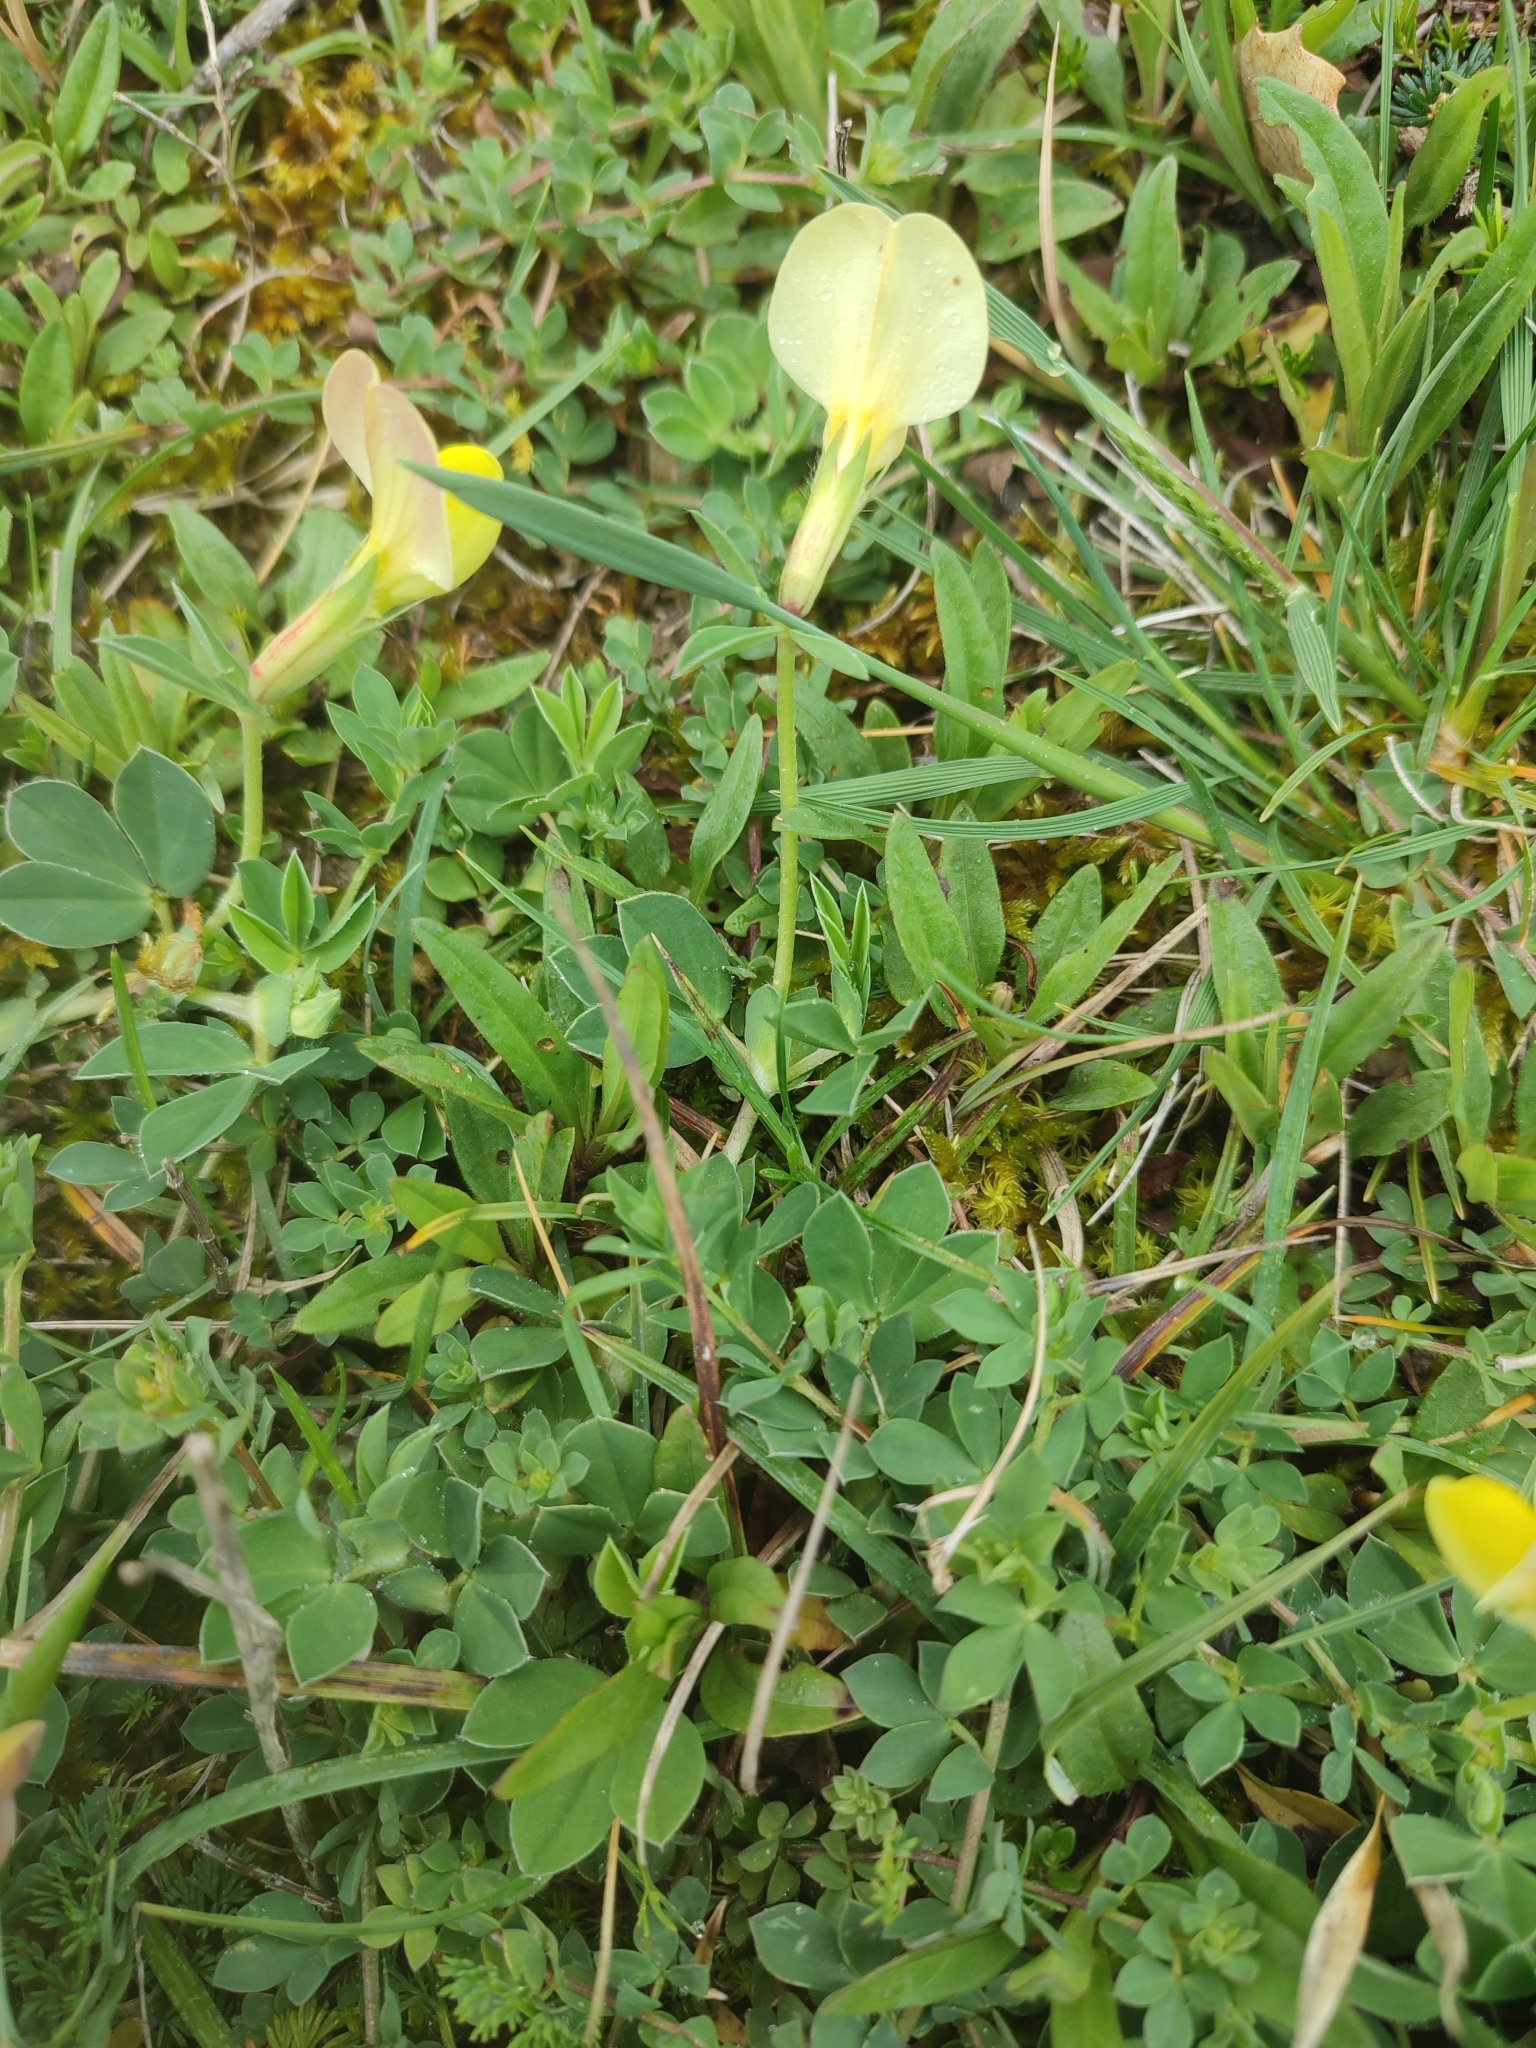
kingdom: Plantae
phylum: Tracheophyta
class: Magnoliopsida
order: Fabales
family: Fabaceae
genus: Lotus
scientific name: Lotus maritimus
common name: Dragon's-teeth
